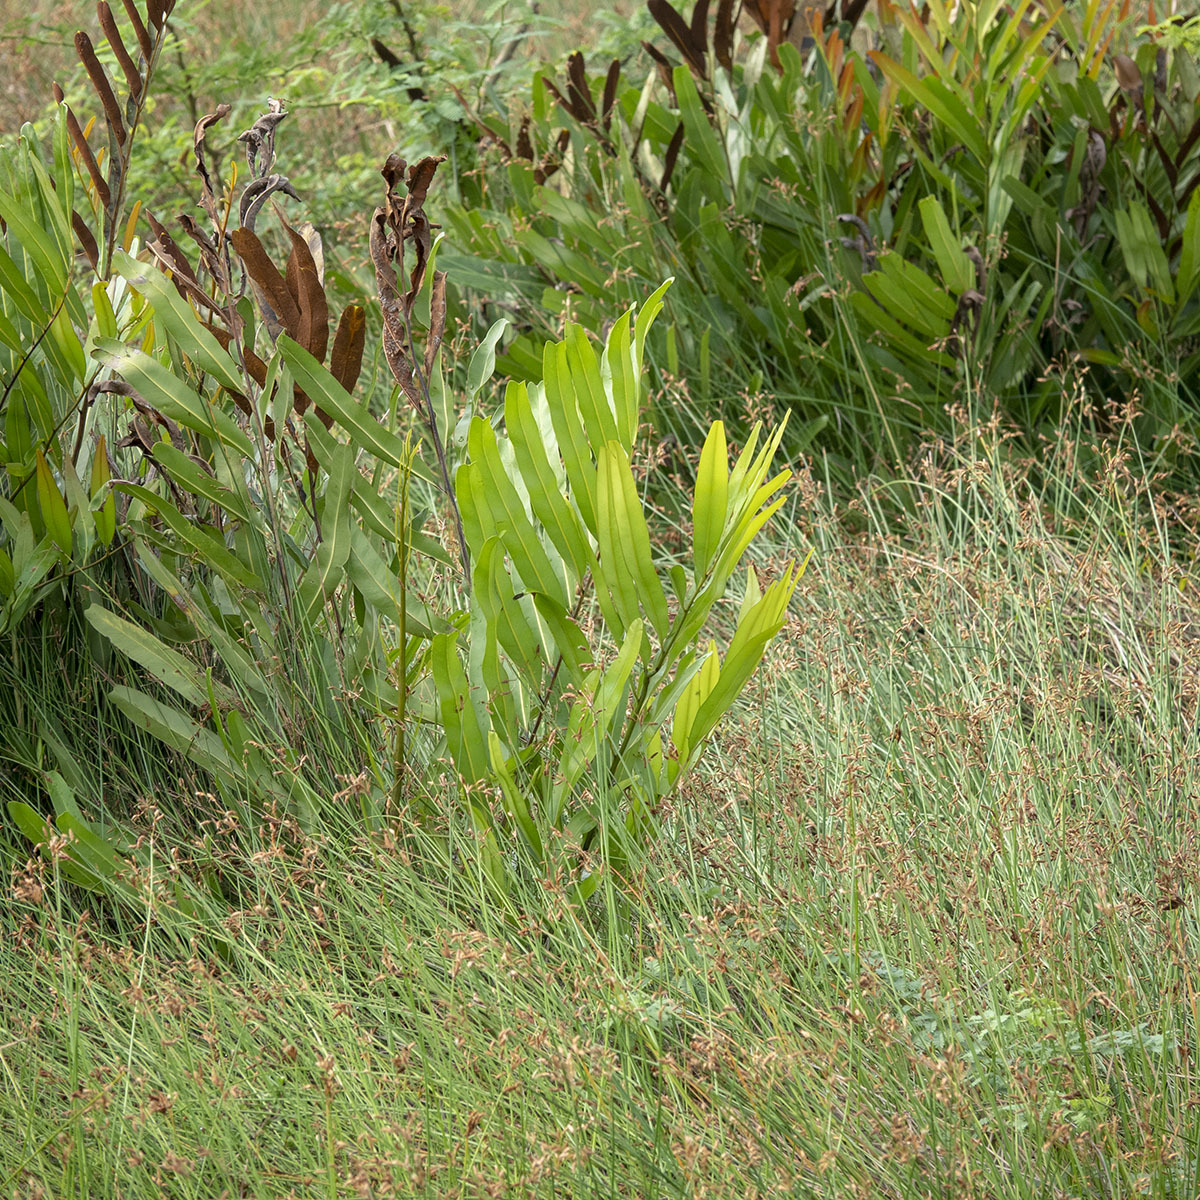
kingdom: Plantae
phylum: Tracheophyta
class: Polypodiopsida
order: Polypodiales
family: Pteridaceae
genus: Acrostichum
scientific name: Acrostichum aureum
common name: Leather fern
